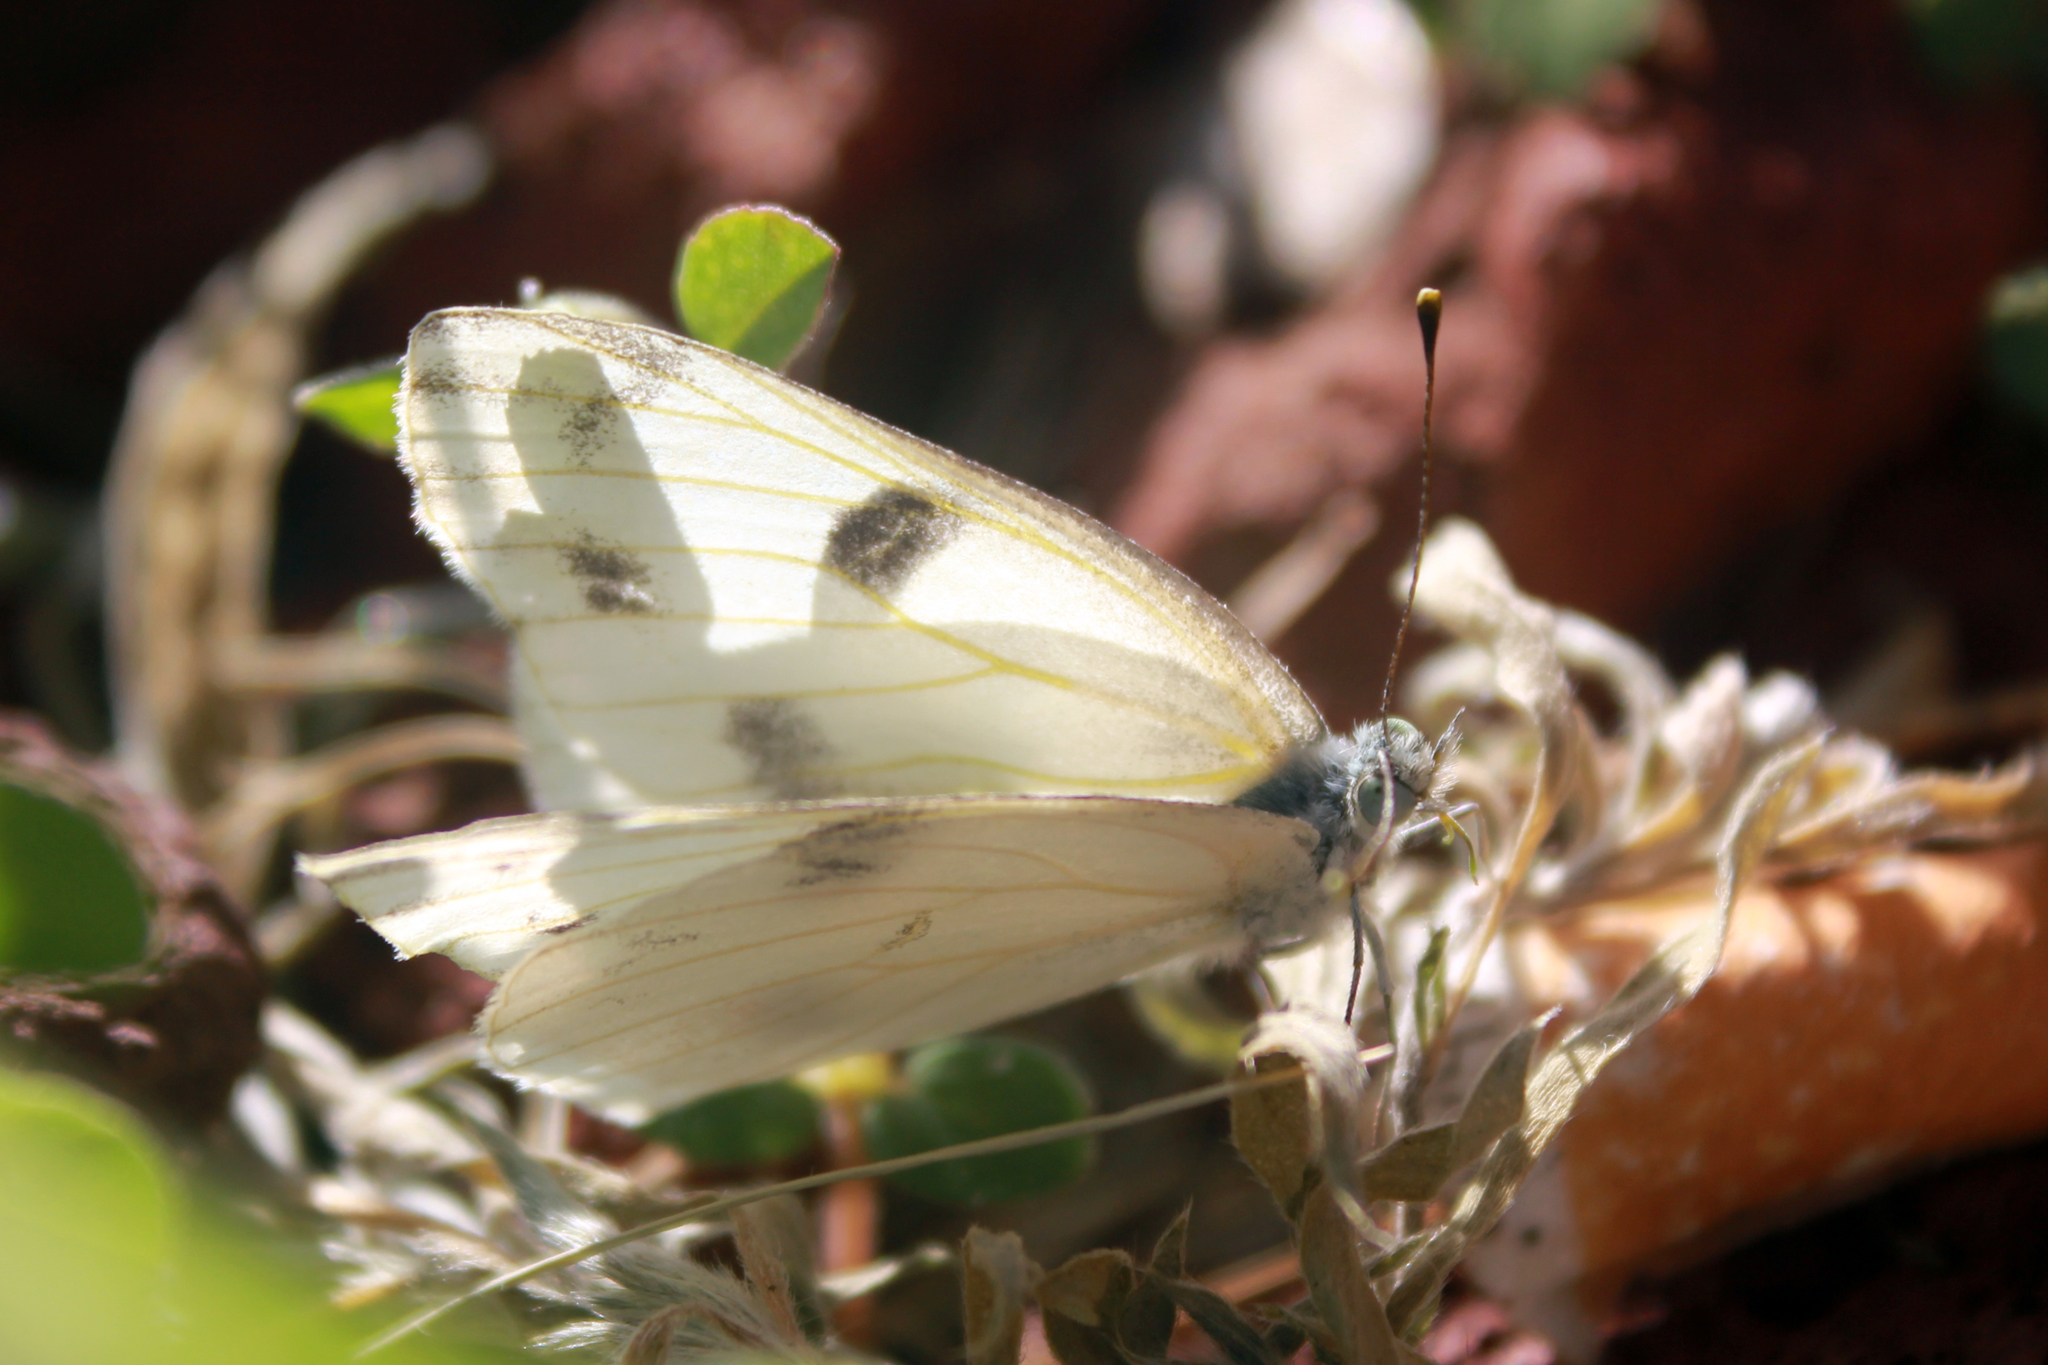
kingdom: Animalia
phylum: Arthropoda
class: Insecta
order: Lepidoptera
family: Pieridae
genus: Pontia
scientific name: Pontia protodice
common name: Checkered white
